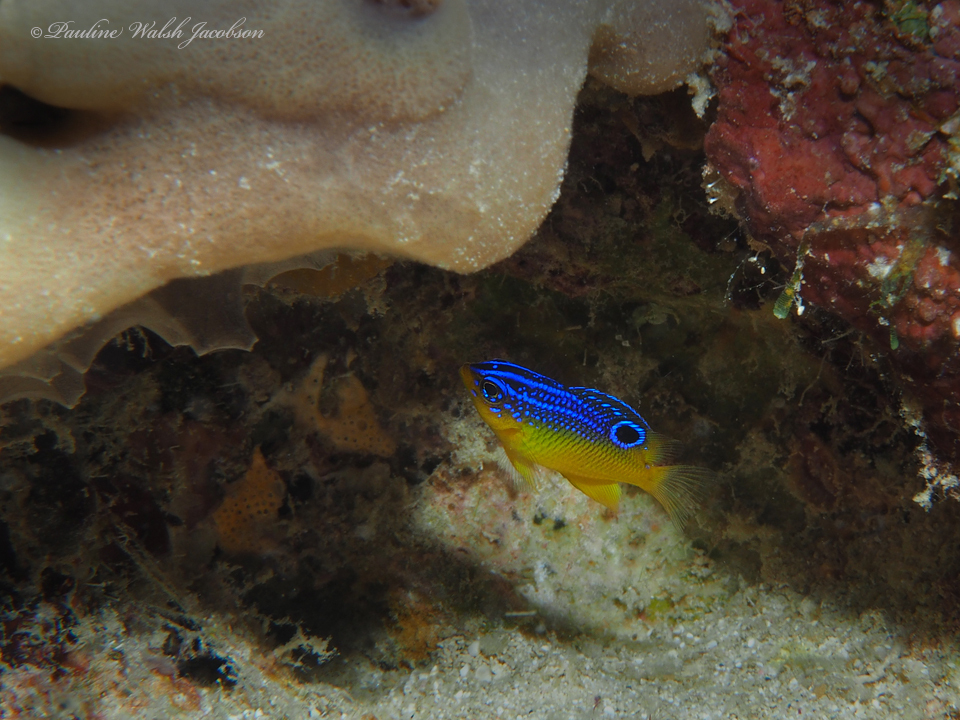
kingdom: Animalia
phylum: Chordata
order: Perciformes
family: Pomacentridae
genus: Stegastes
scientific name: Stegastes xanthurus
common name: Cocoa damselfish
